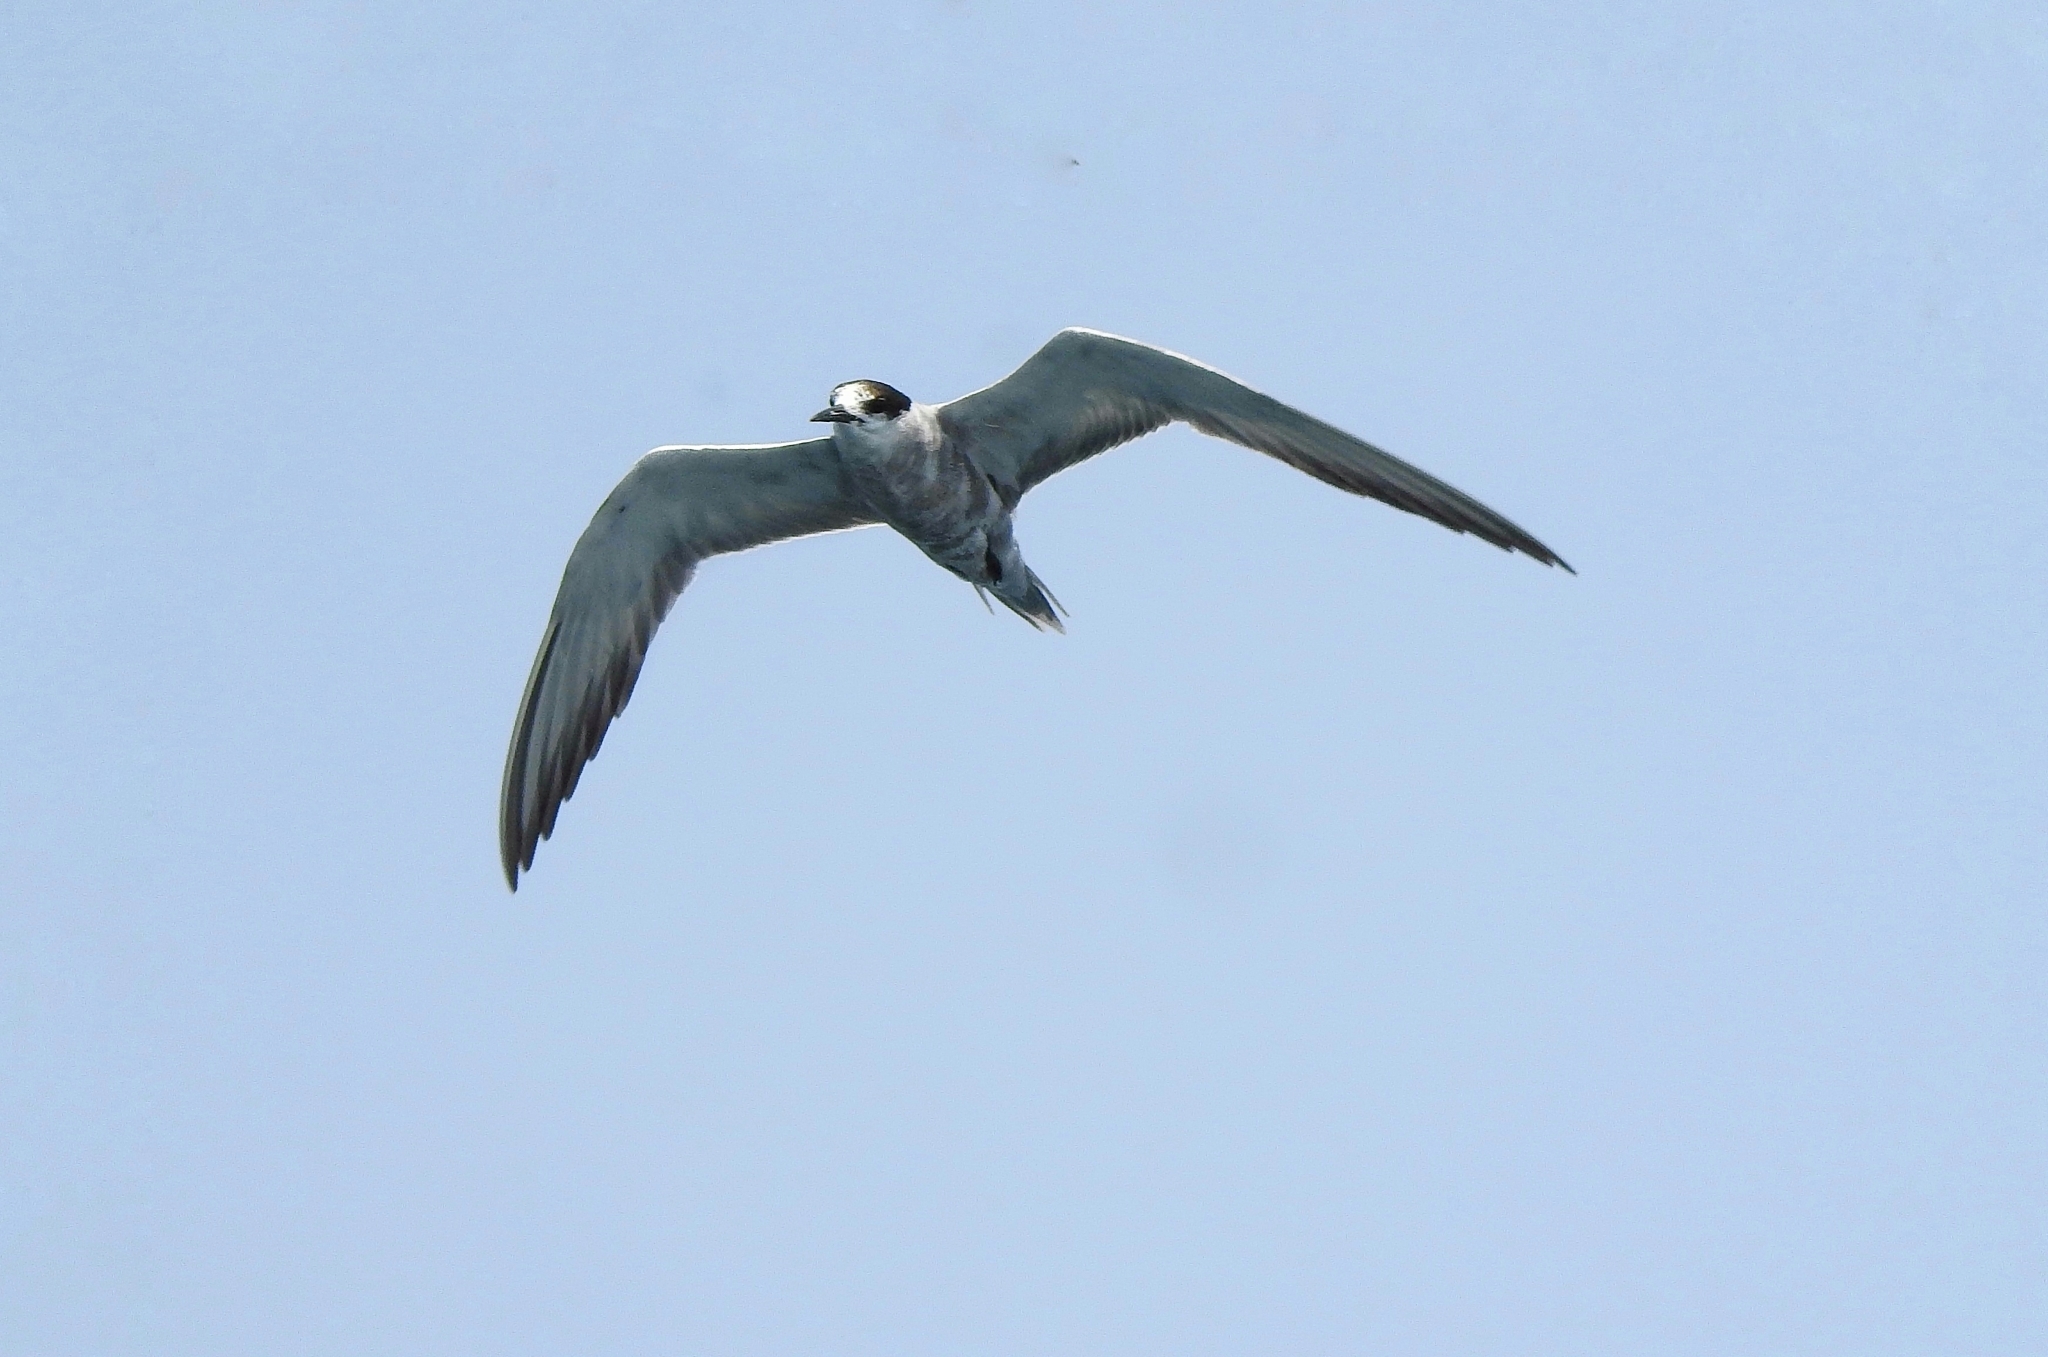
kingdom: Animalia
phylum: Chordata
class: Aves
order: Charadriiformes
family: Laridae
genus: Sterna
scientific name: Sterna repressa
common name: White-cheeked tern
